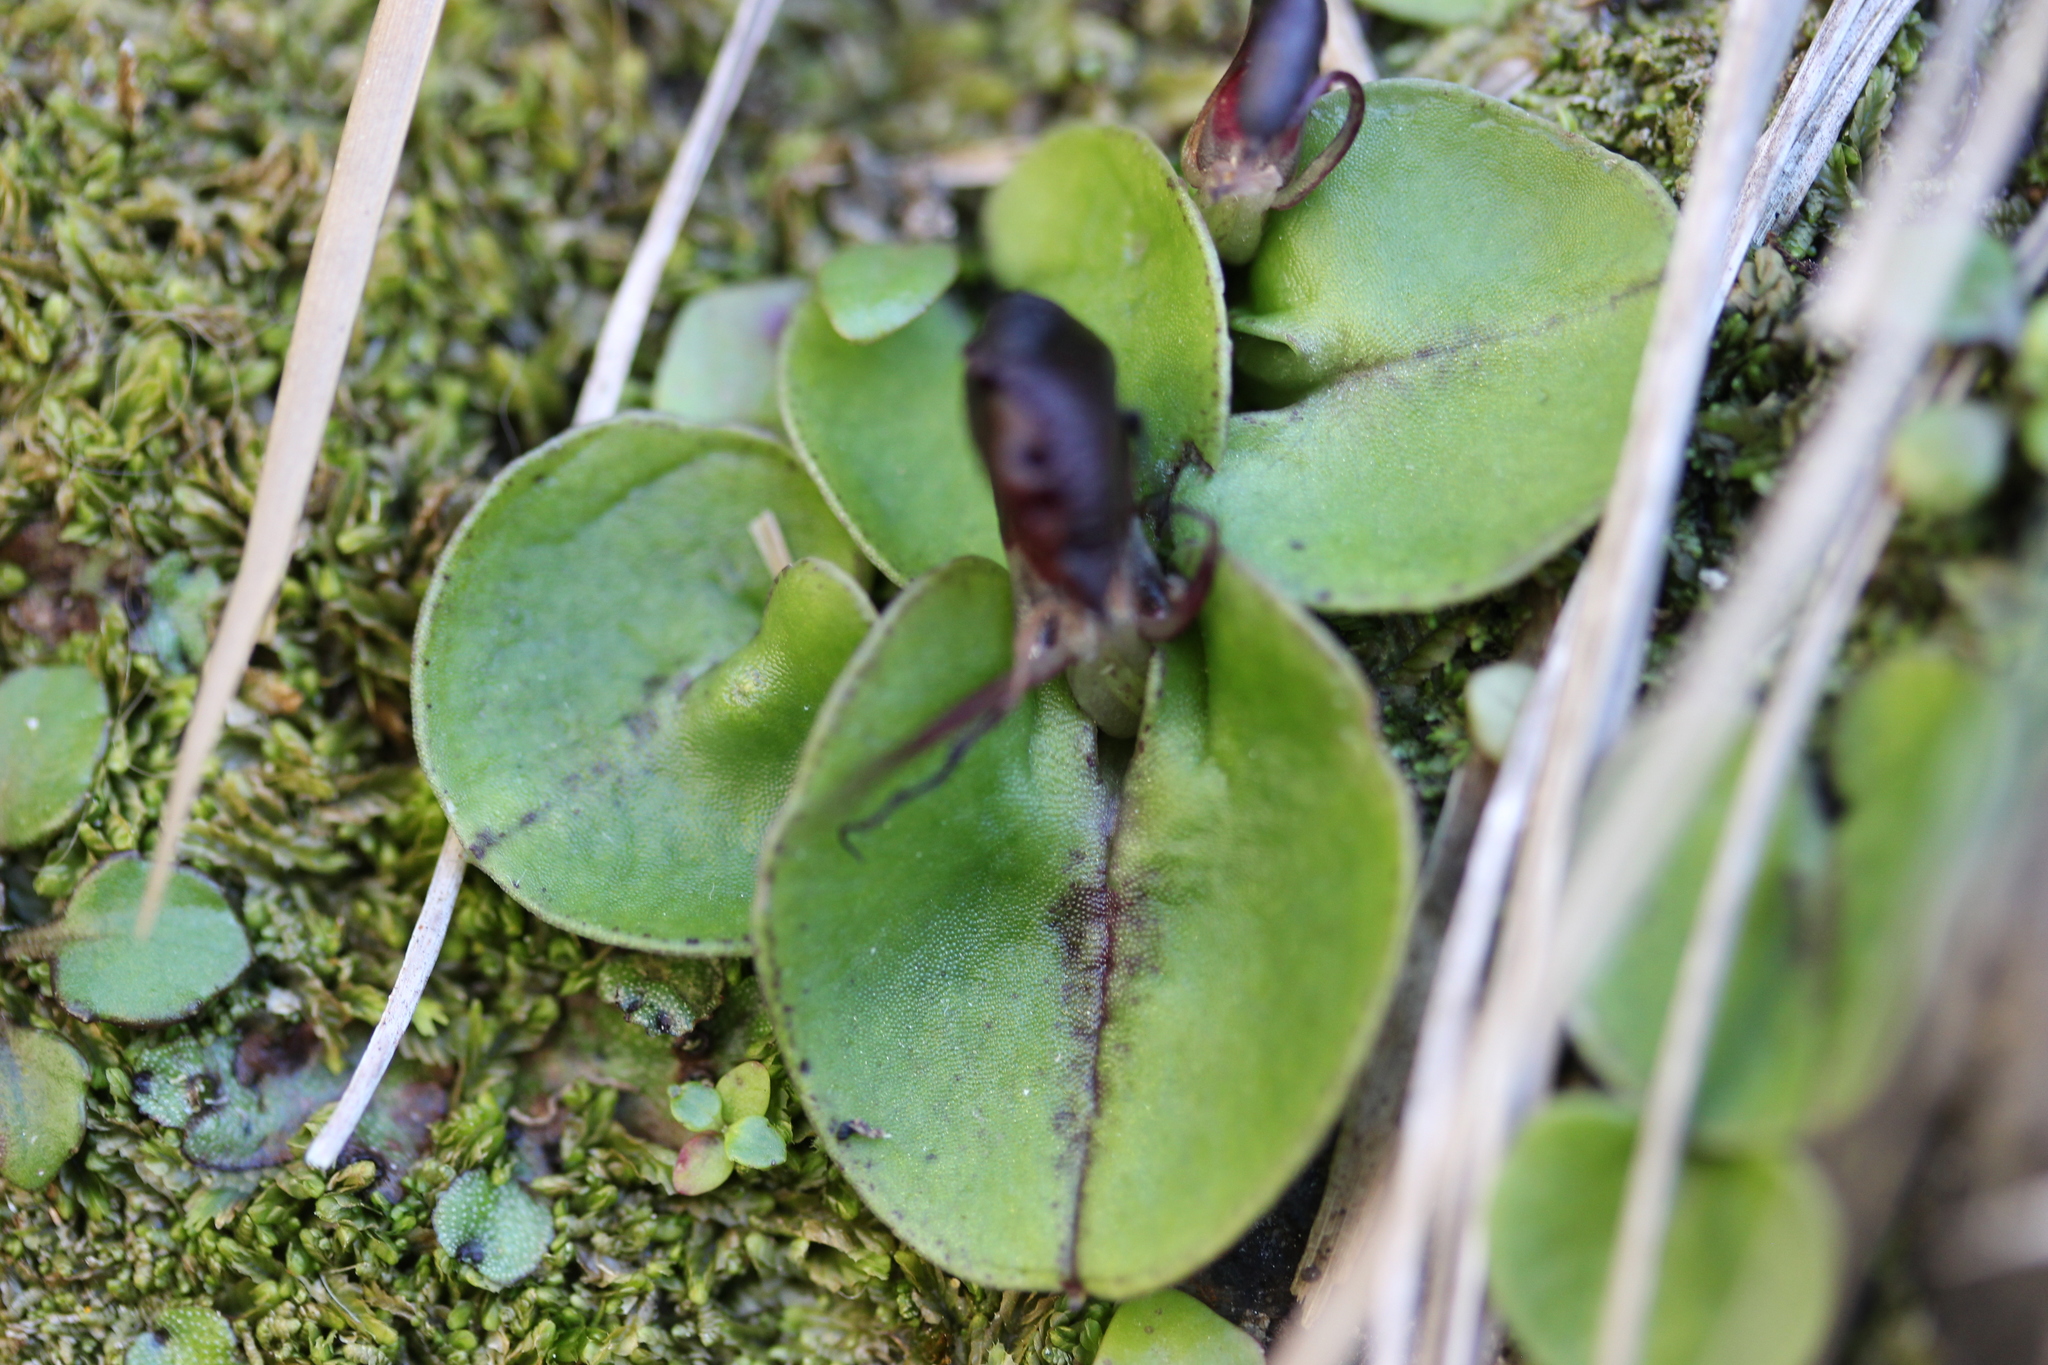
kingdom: Plantae
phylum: Tracheophyta
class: Liliopsida
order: Asparagales
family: Orchidaceae
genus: Corybas
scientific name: Corybas macranthus
